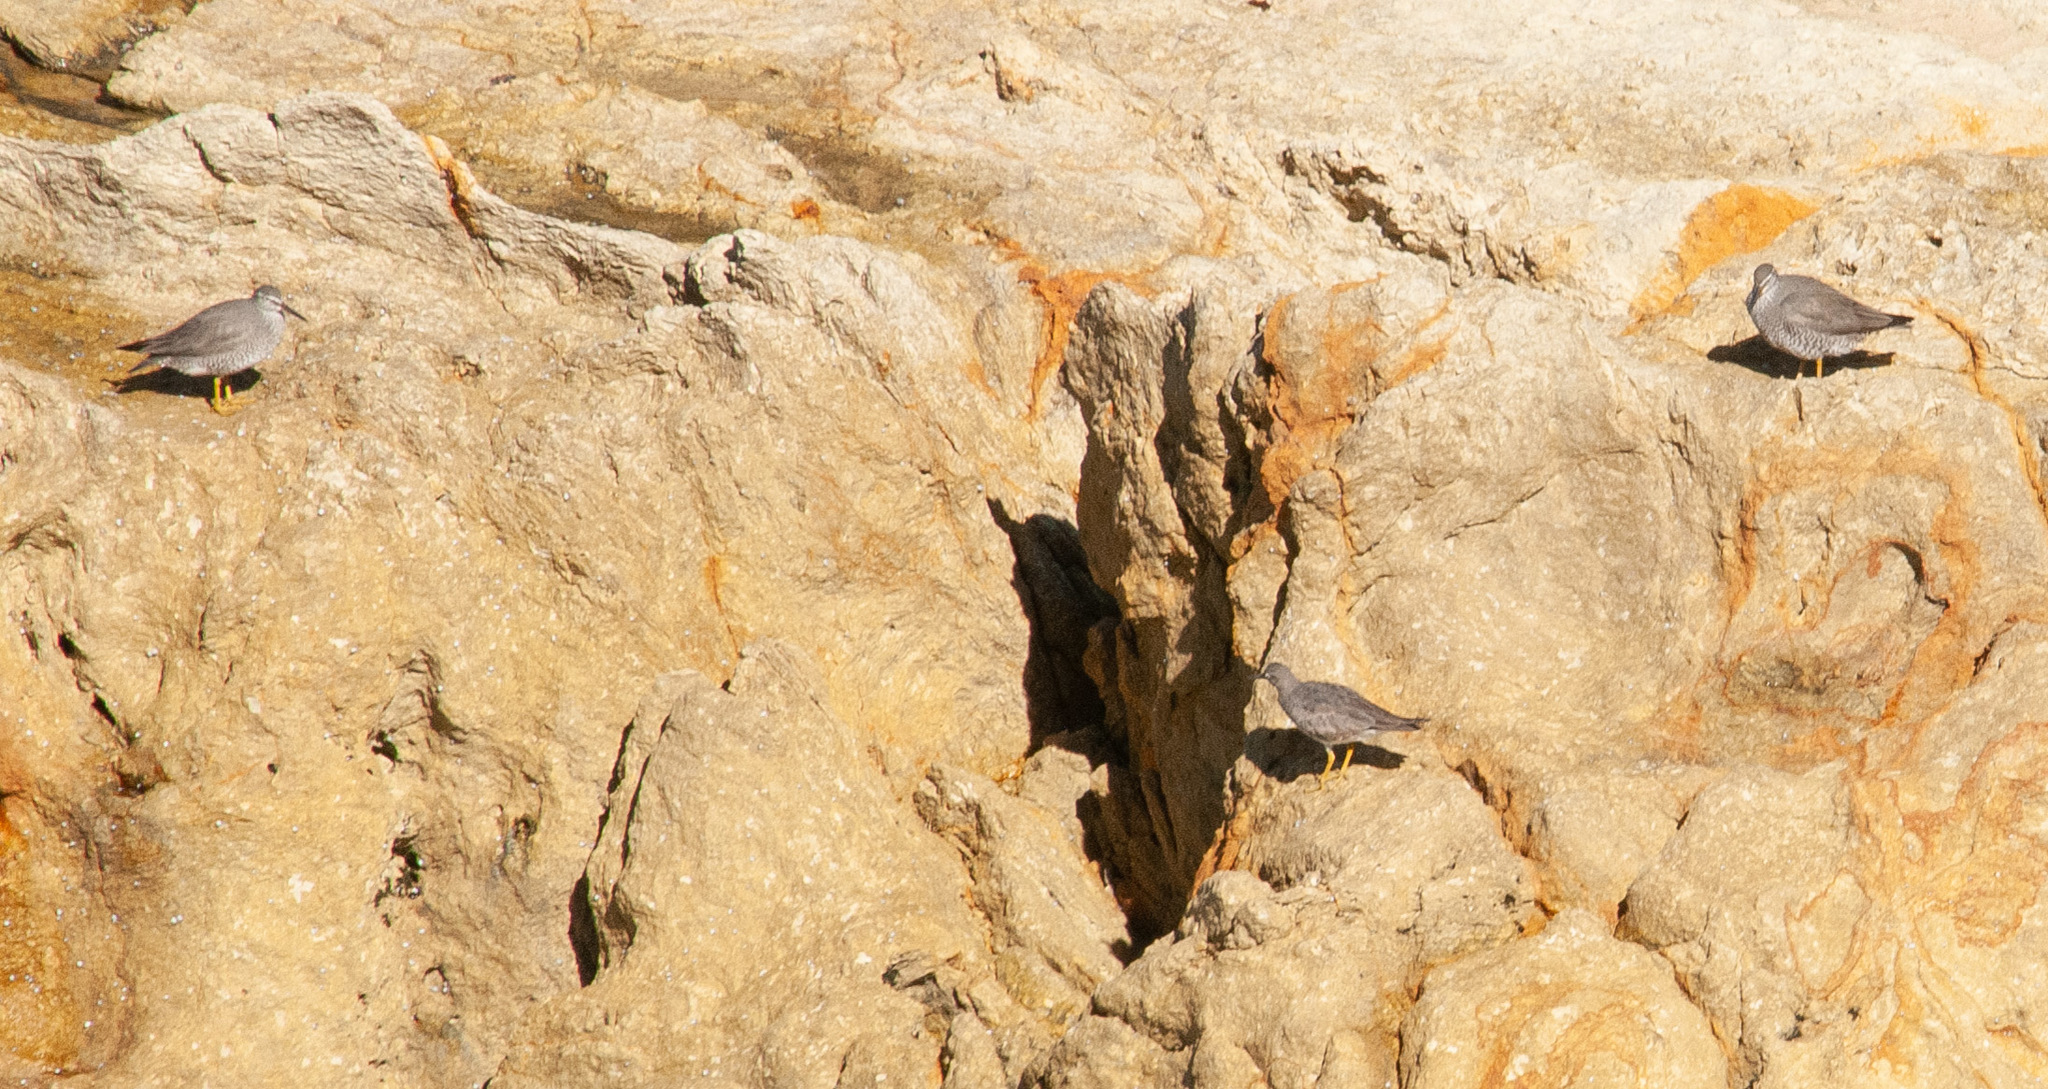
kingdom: Animalia
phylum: Chordata
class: Aves
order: Charadriiformes
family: Scolopacidae
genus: Tringa
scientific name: Tringa brevipes
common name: Grey-tailed tattler
